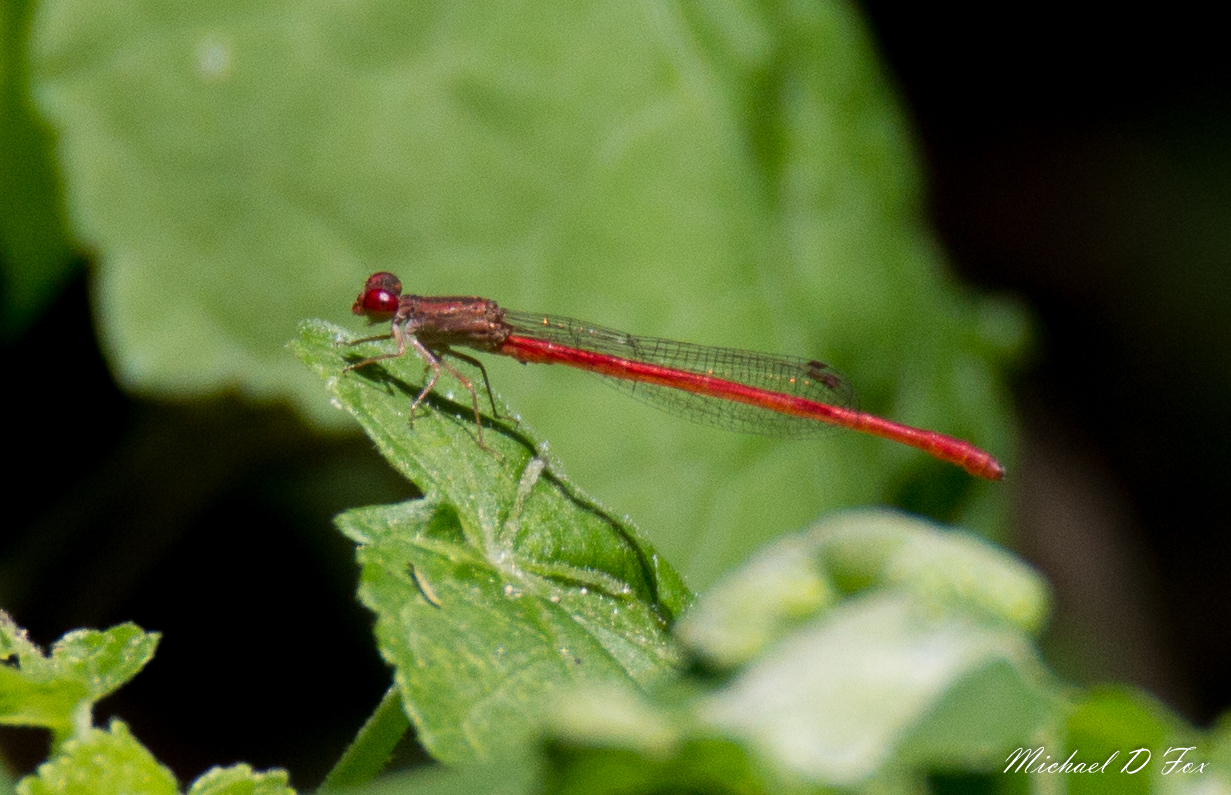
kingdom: Animalia
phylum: Arthropoda
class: Insecta
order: Odonata
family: Coenagrionidae
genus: Telebasis
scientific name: Telebasis salva
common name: Desert firetail
